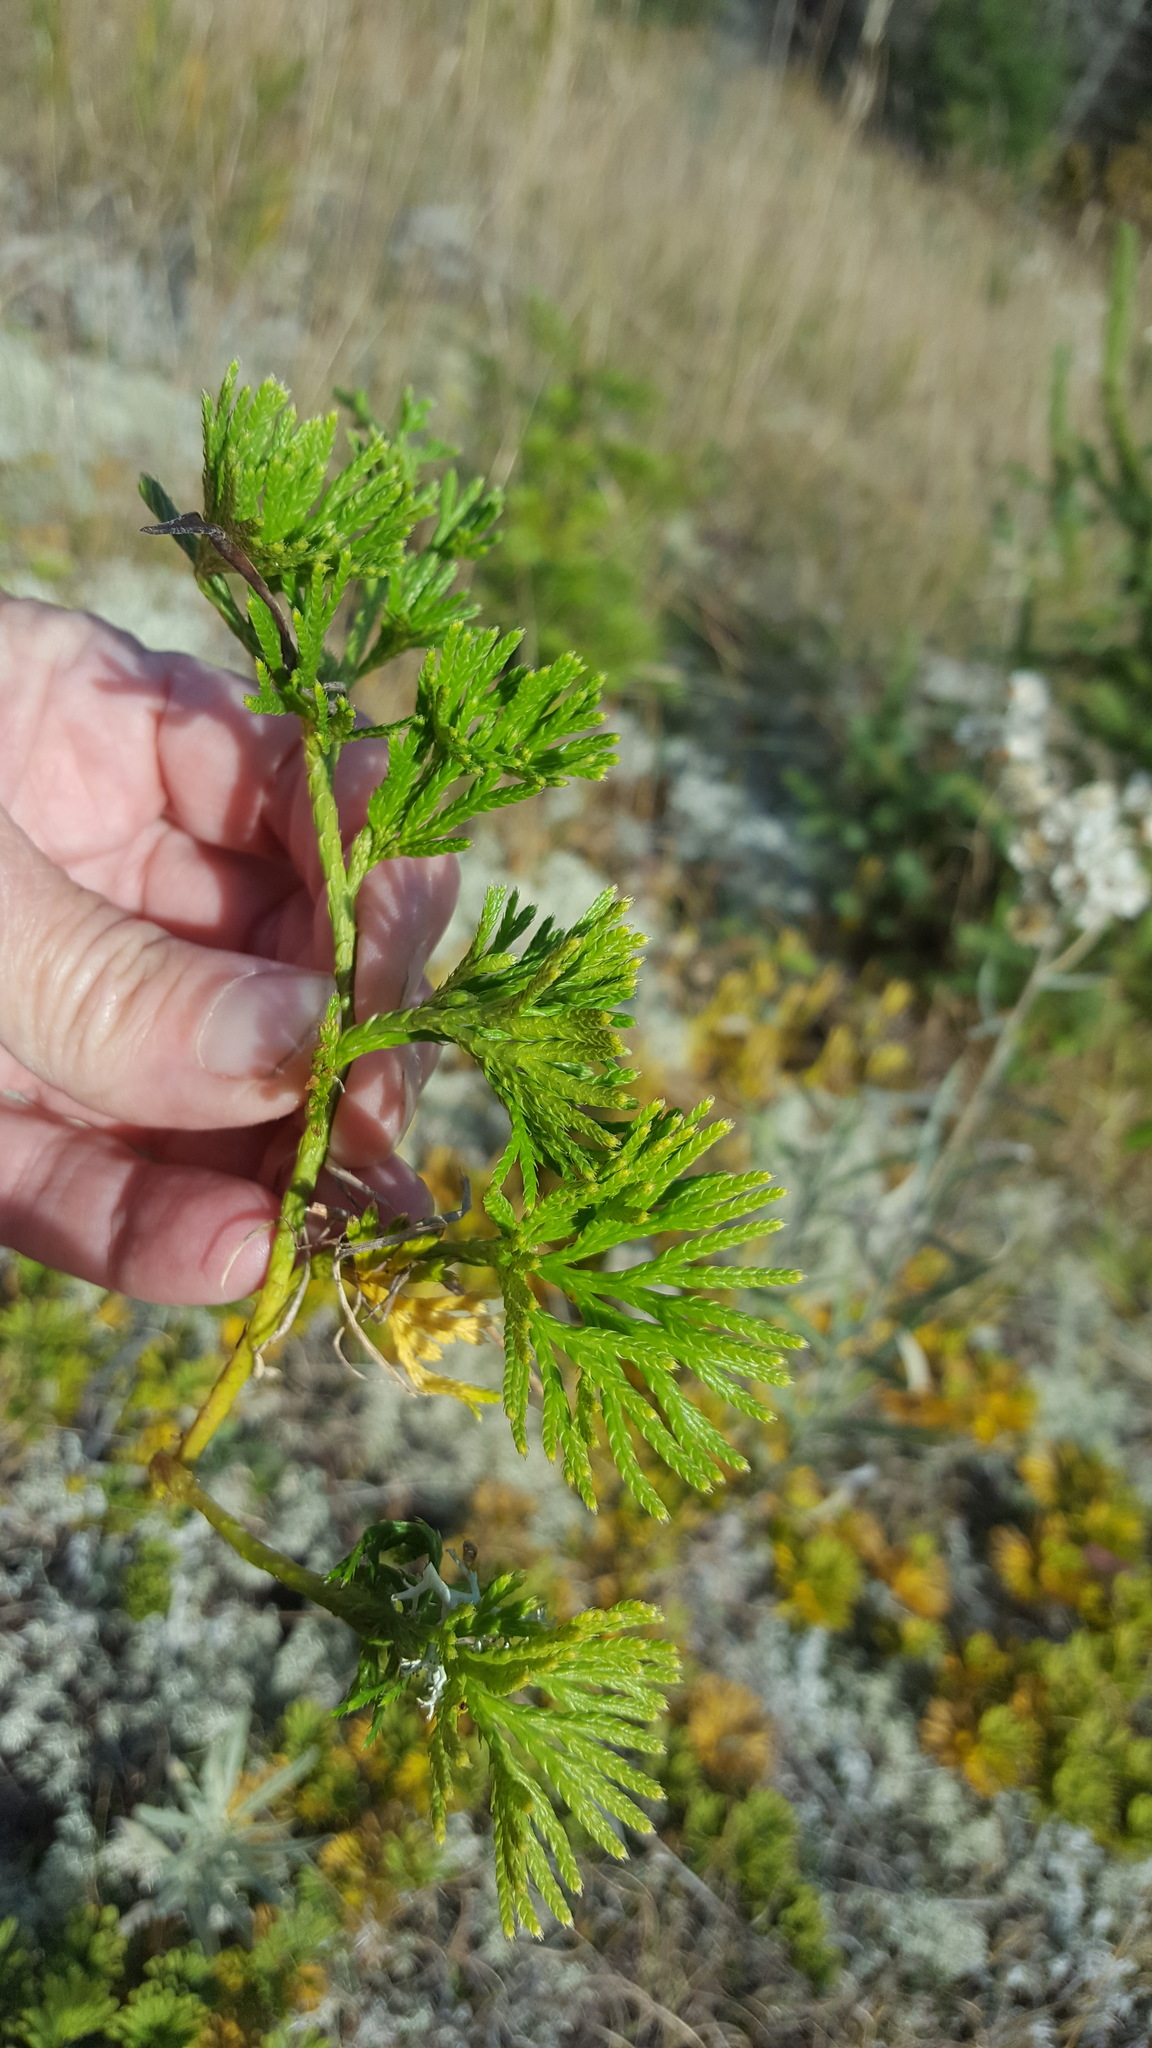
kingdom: Plantae
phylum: Tracheophyta
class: Lycopodiopsida
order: Lycopodiales
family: Lycopodiaceae
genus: Diphasiastrum
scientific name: Diphasiastrum complanatum
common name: Northern running-pine
